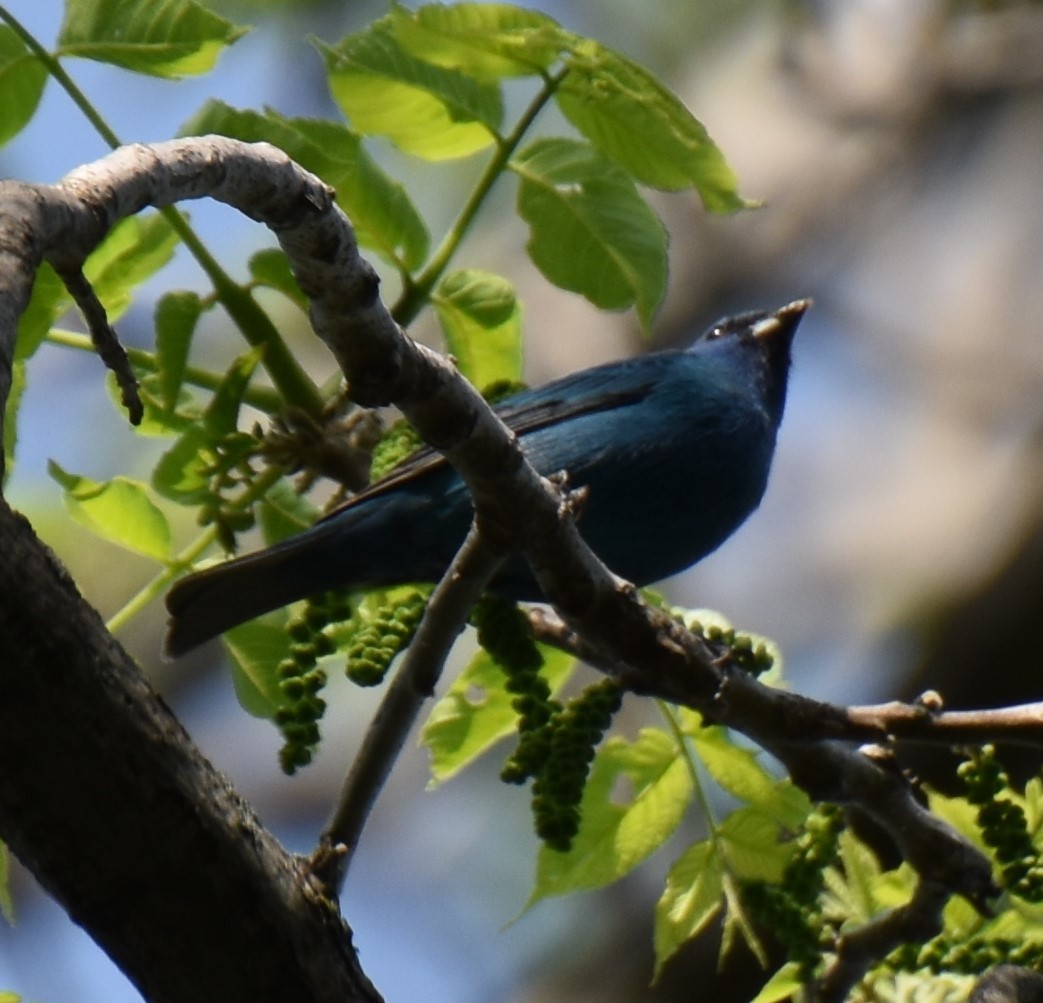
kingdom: Animalia
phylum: Chordata
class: Aves
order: Passeriformes
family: Cardinalidae
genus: Passerina
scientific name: Passerina cyanea
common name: Indigo bunting
